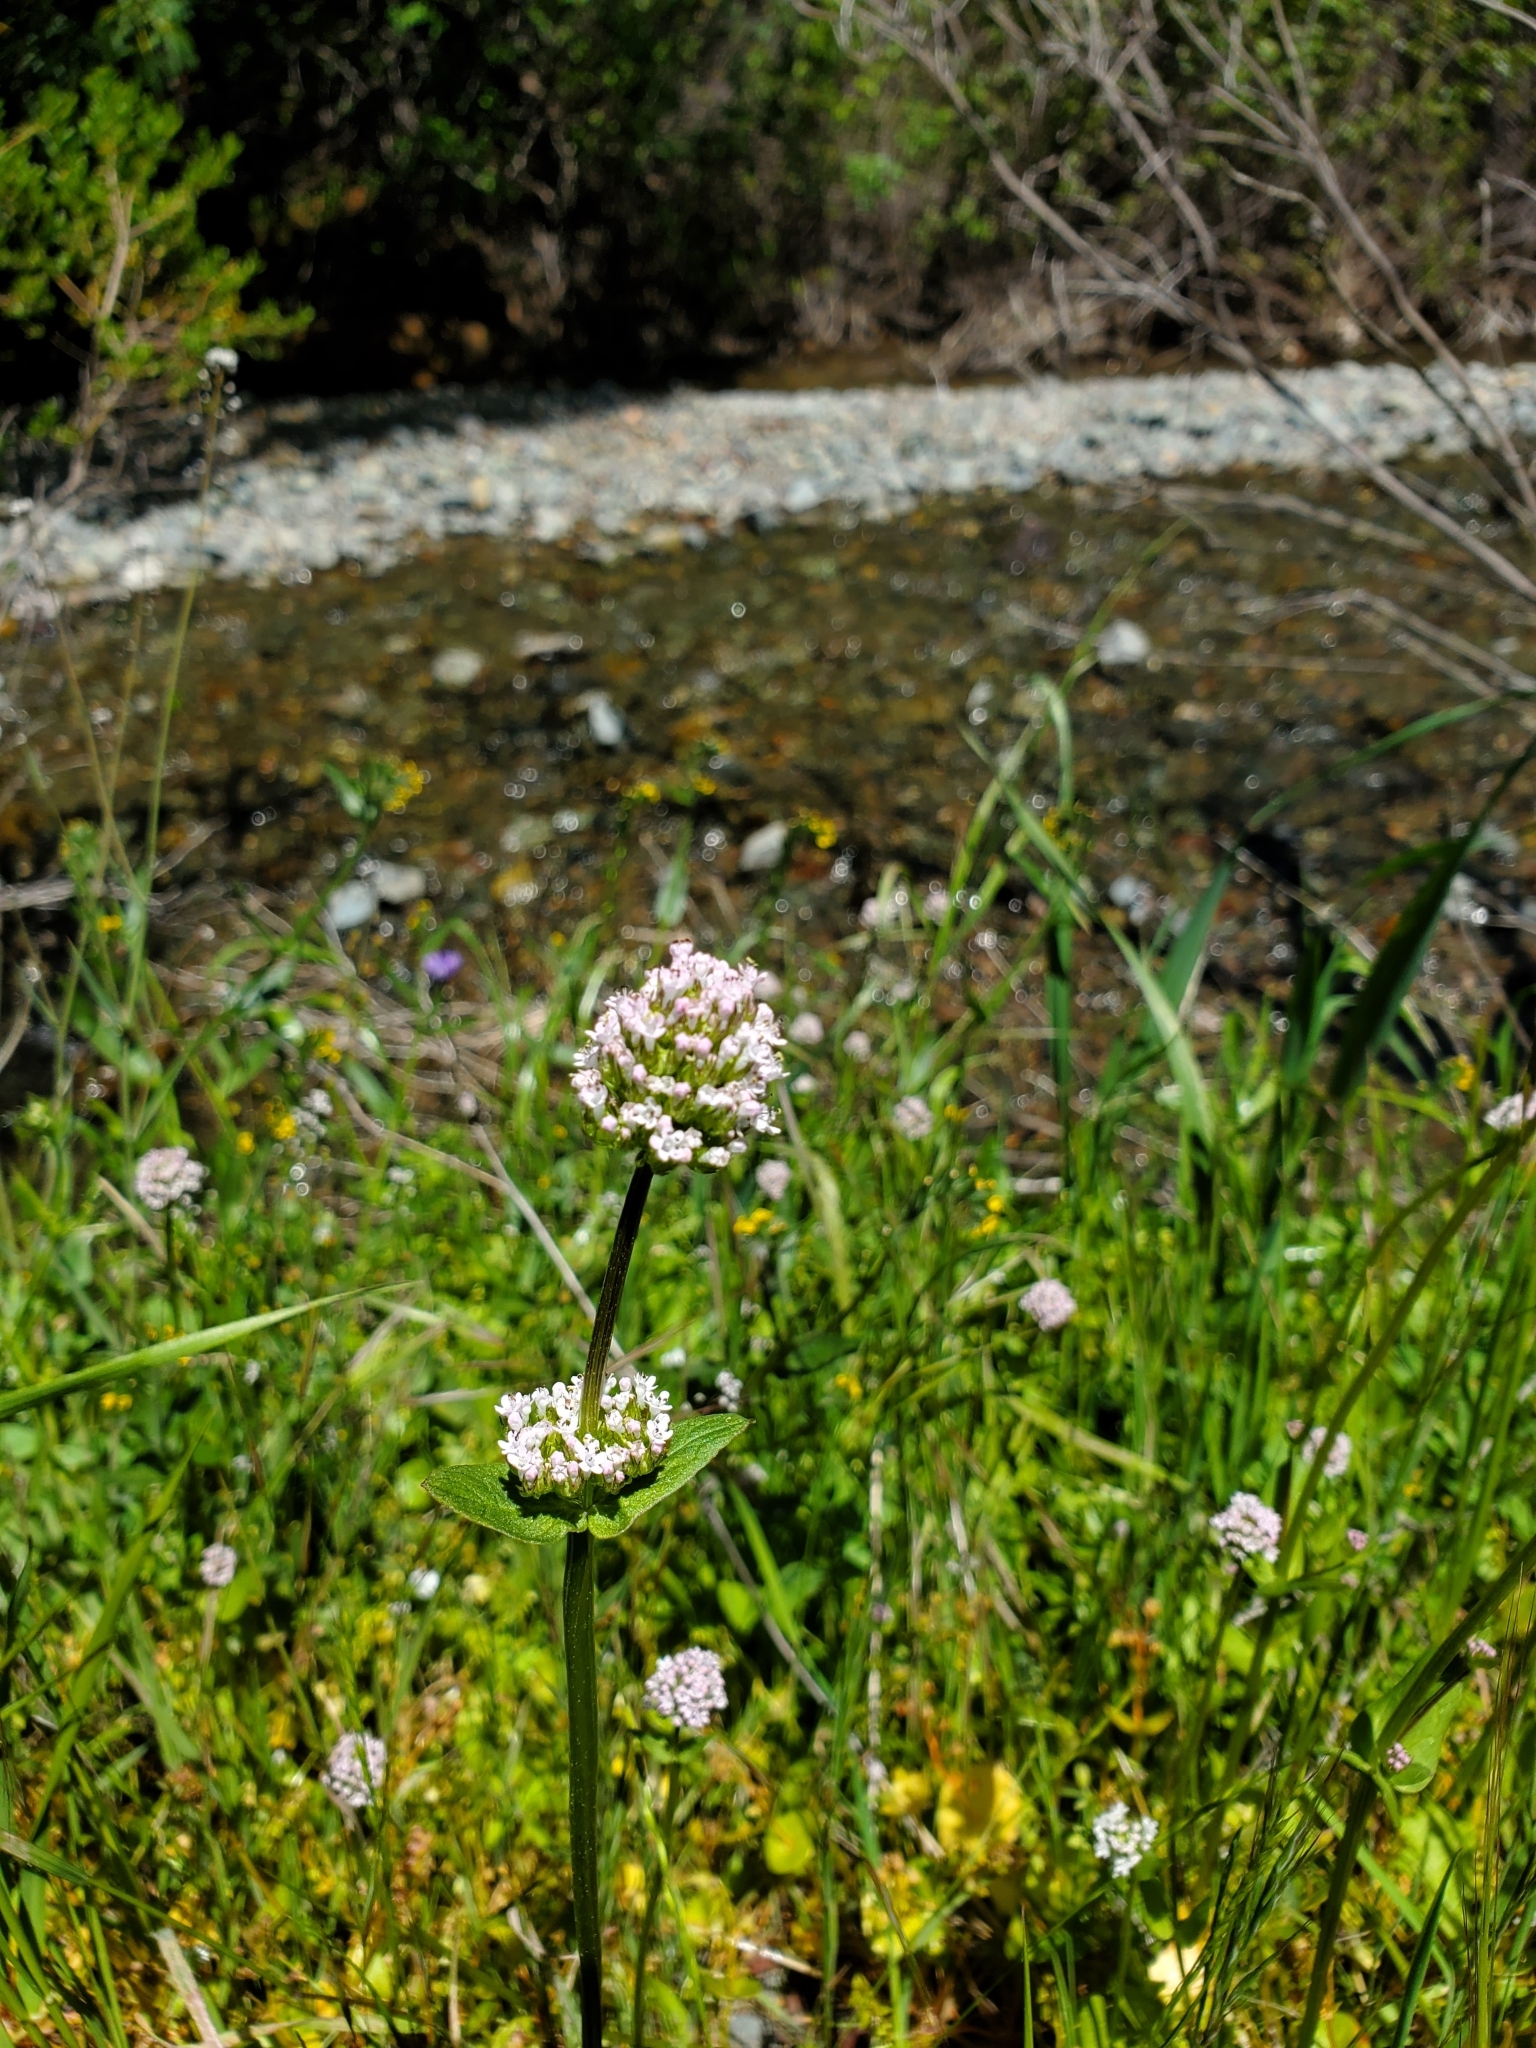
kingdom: Plantae
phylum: Tracheophyta
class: Magnoliopsida
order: Dipsacales
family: Caprifoliaceae
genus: Plectritis
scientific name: Plectritis macroptera
